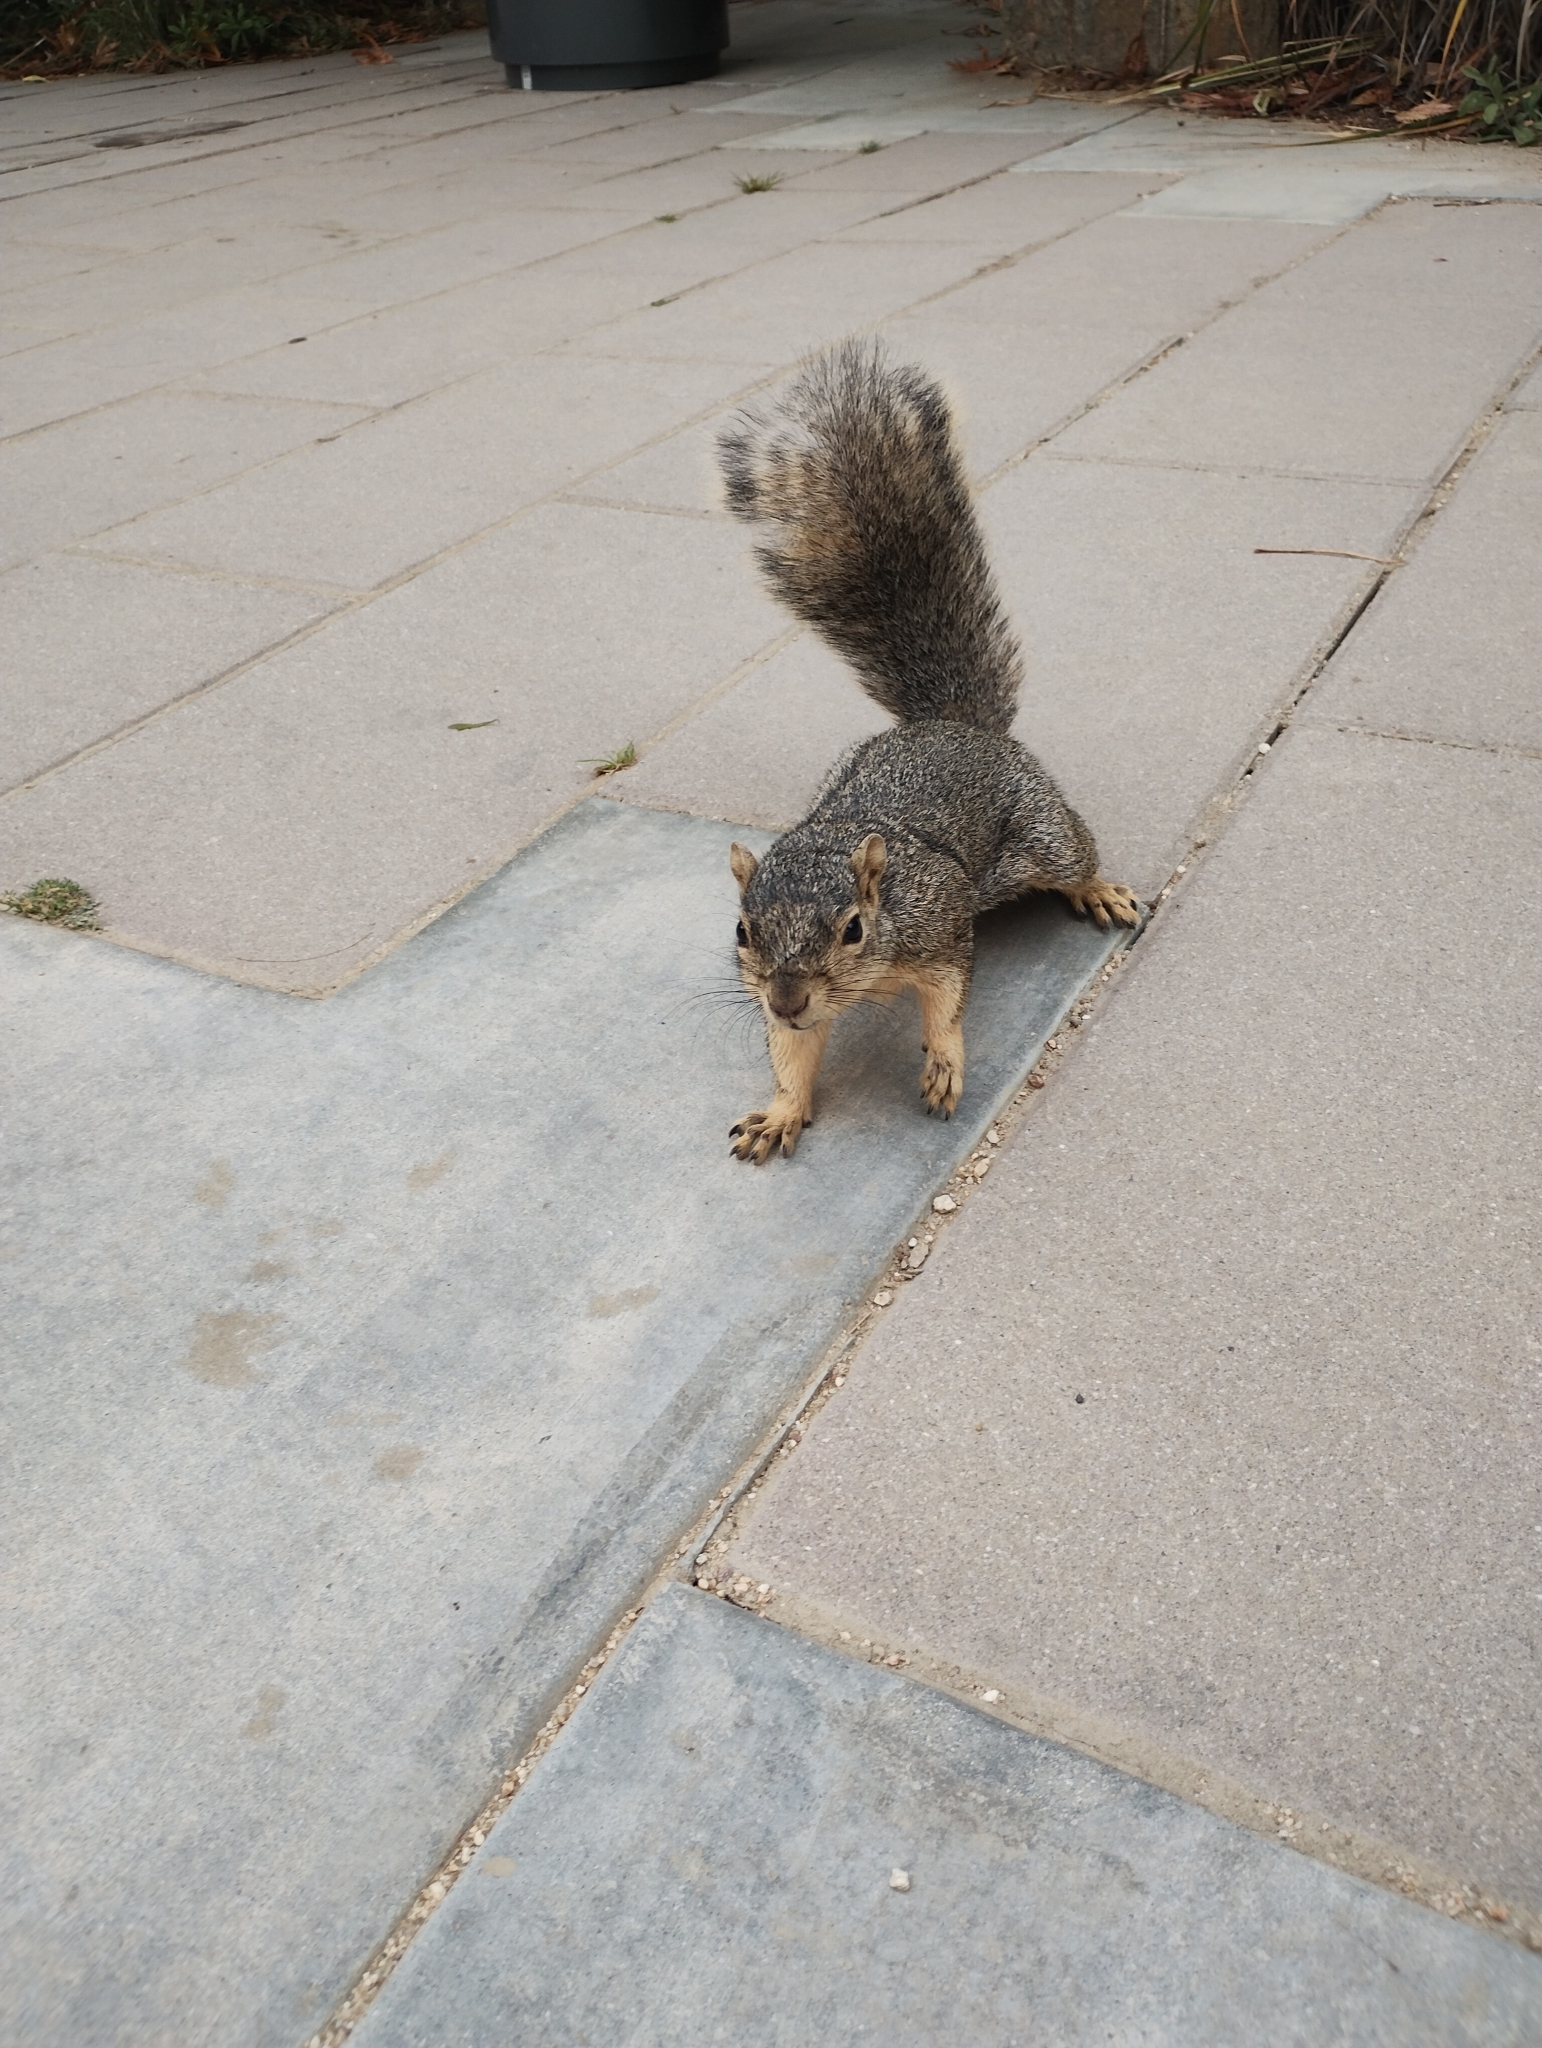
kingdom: Animalia
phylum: Chordata
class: Mammalia
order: Rodentia
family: Sciuridae
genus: Sciurus
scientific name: Sciurus niger
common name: Fox squirrel
